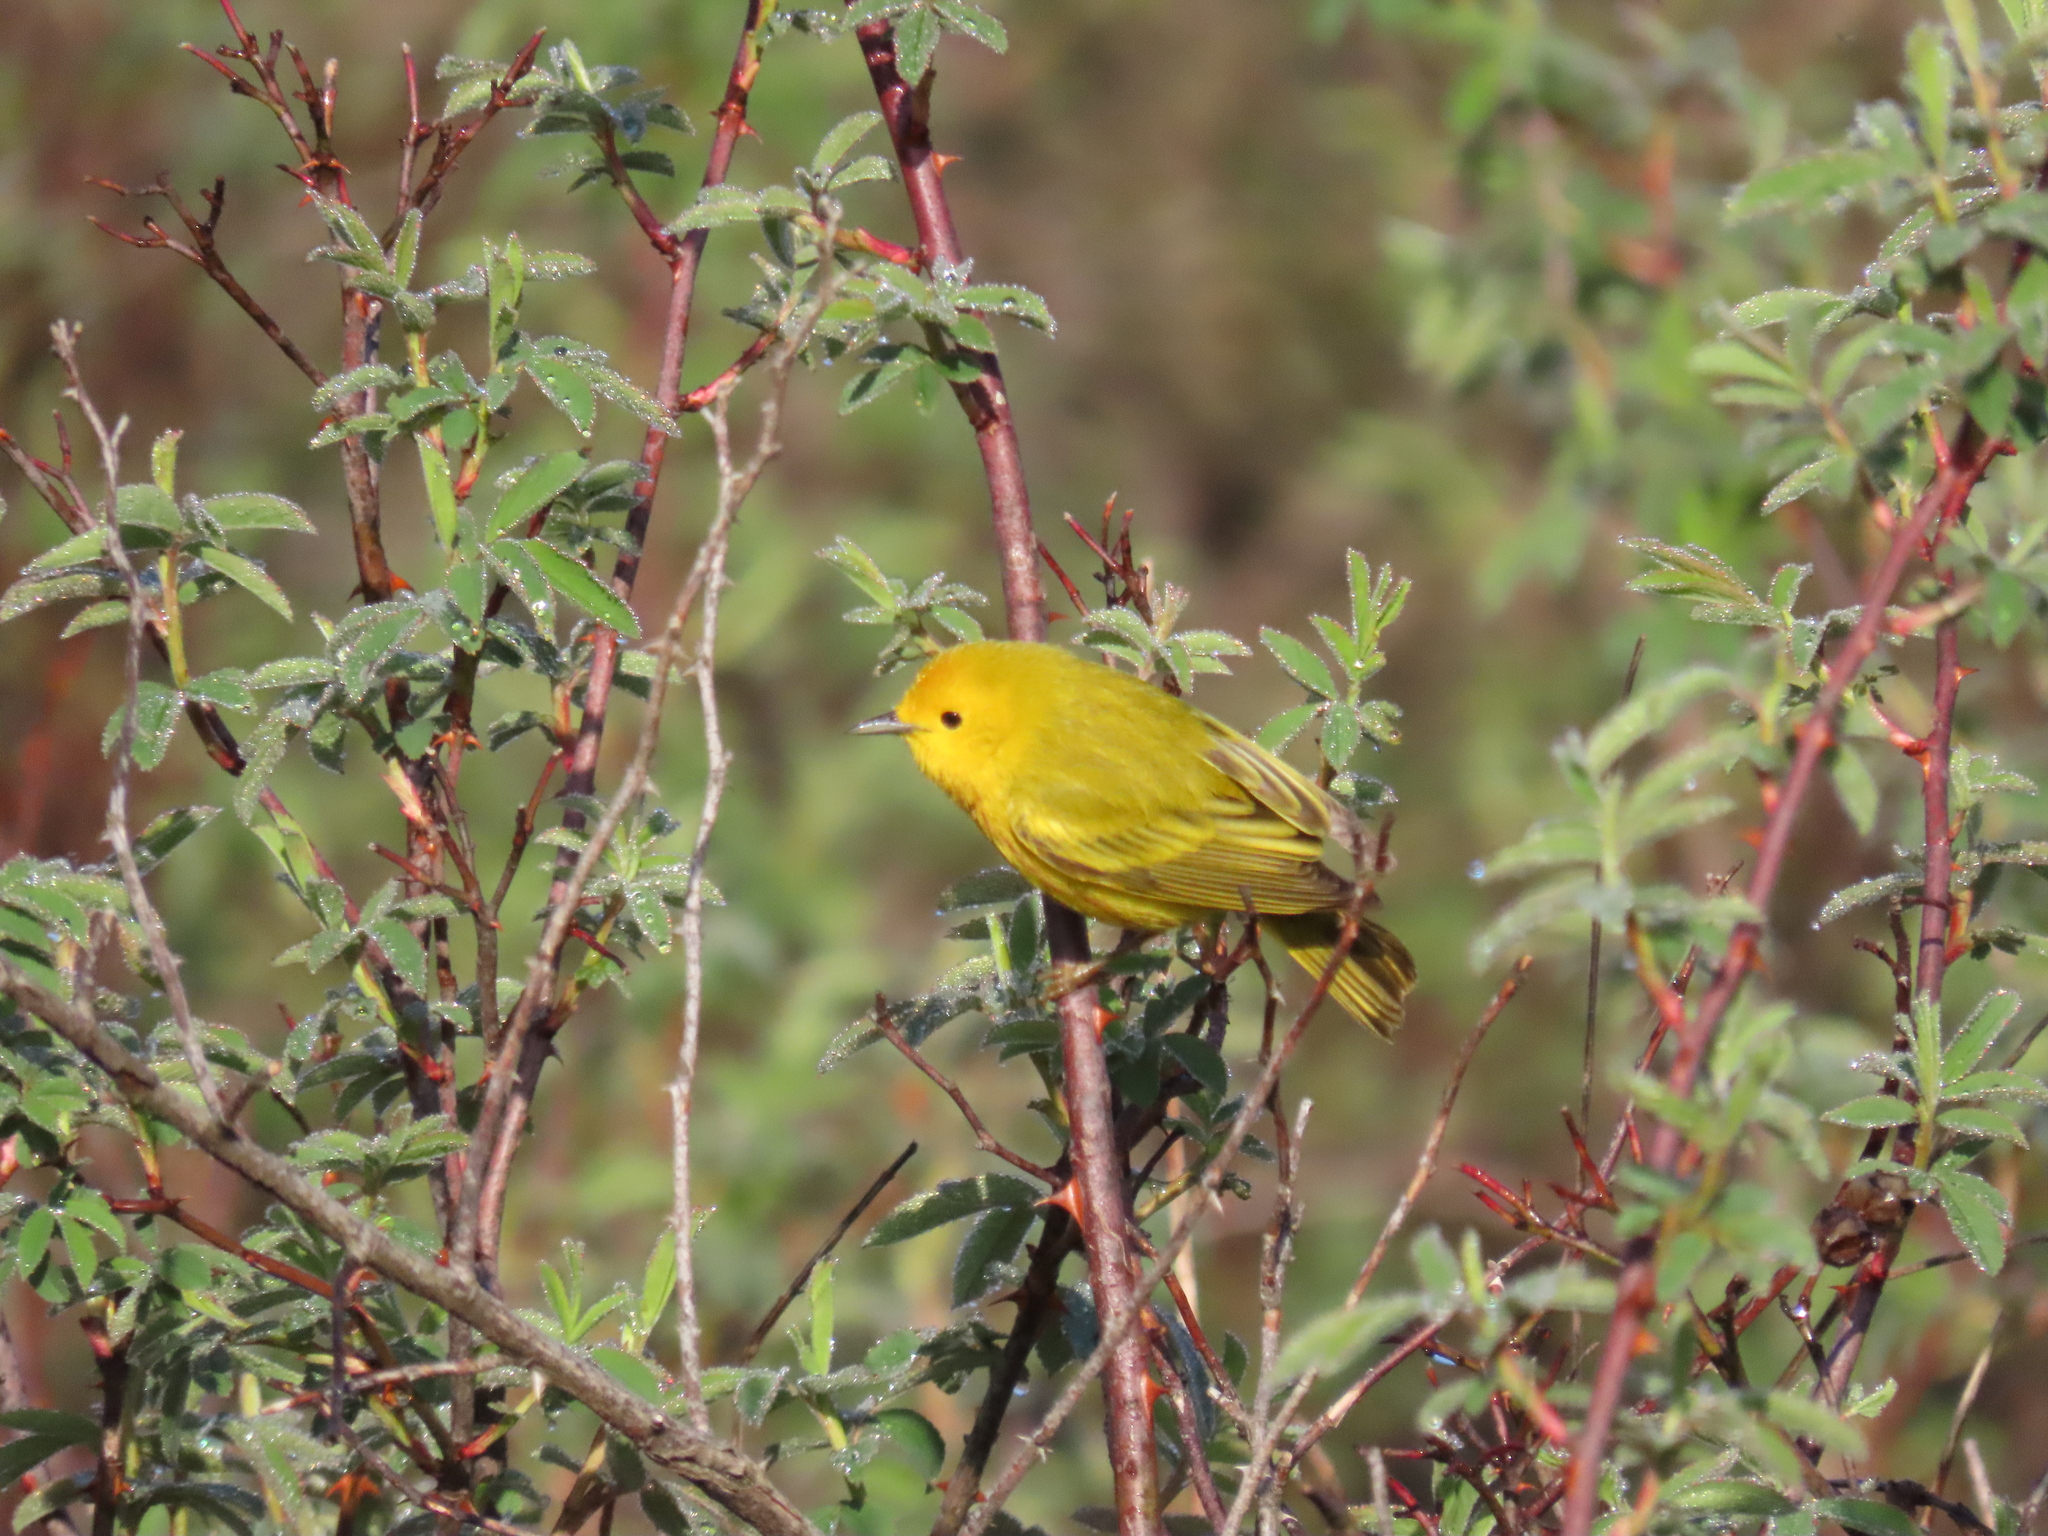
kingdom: Animalia
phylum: Chordata
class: Aves
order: Passeriformes
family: Parulidae
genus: Setophaga
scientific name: Setophaga petechia
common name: Yellow warbler
